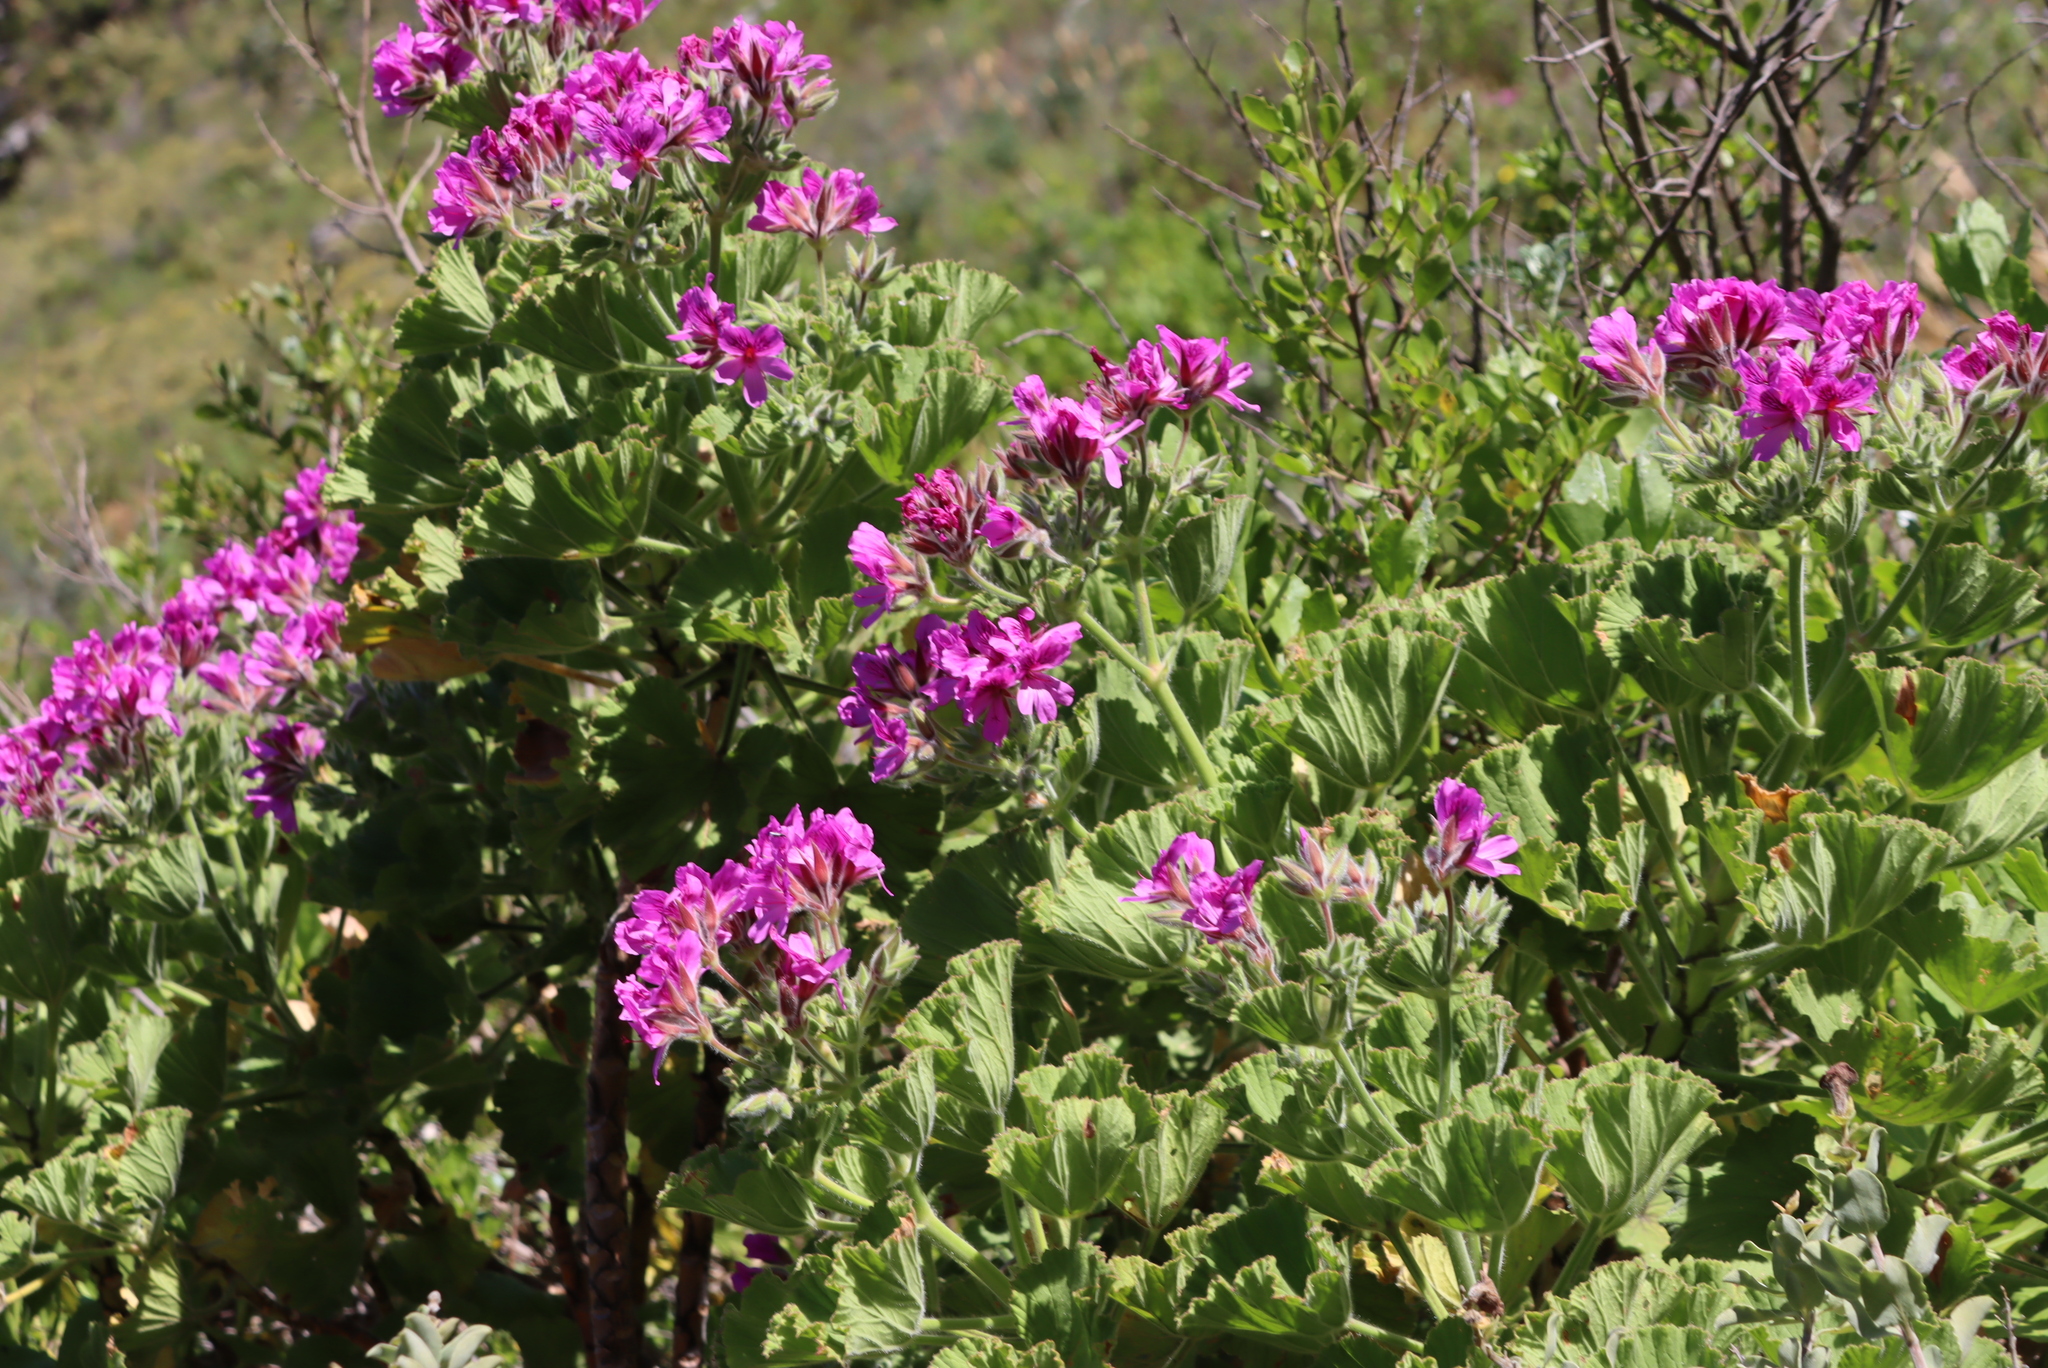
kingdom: Plantae
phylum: Tracheophyta
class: Magnoliopsida
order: Geraniales
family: Geraniaceae
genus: Pelargonium
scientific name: Pelargonium cucullatum
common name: Tree pelargonium
